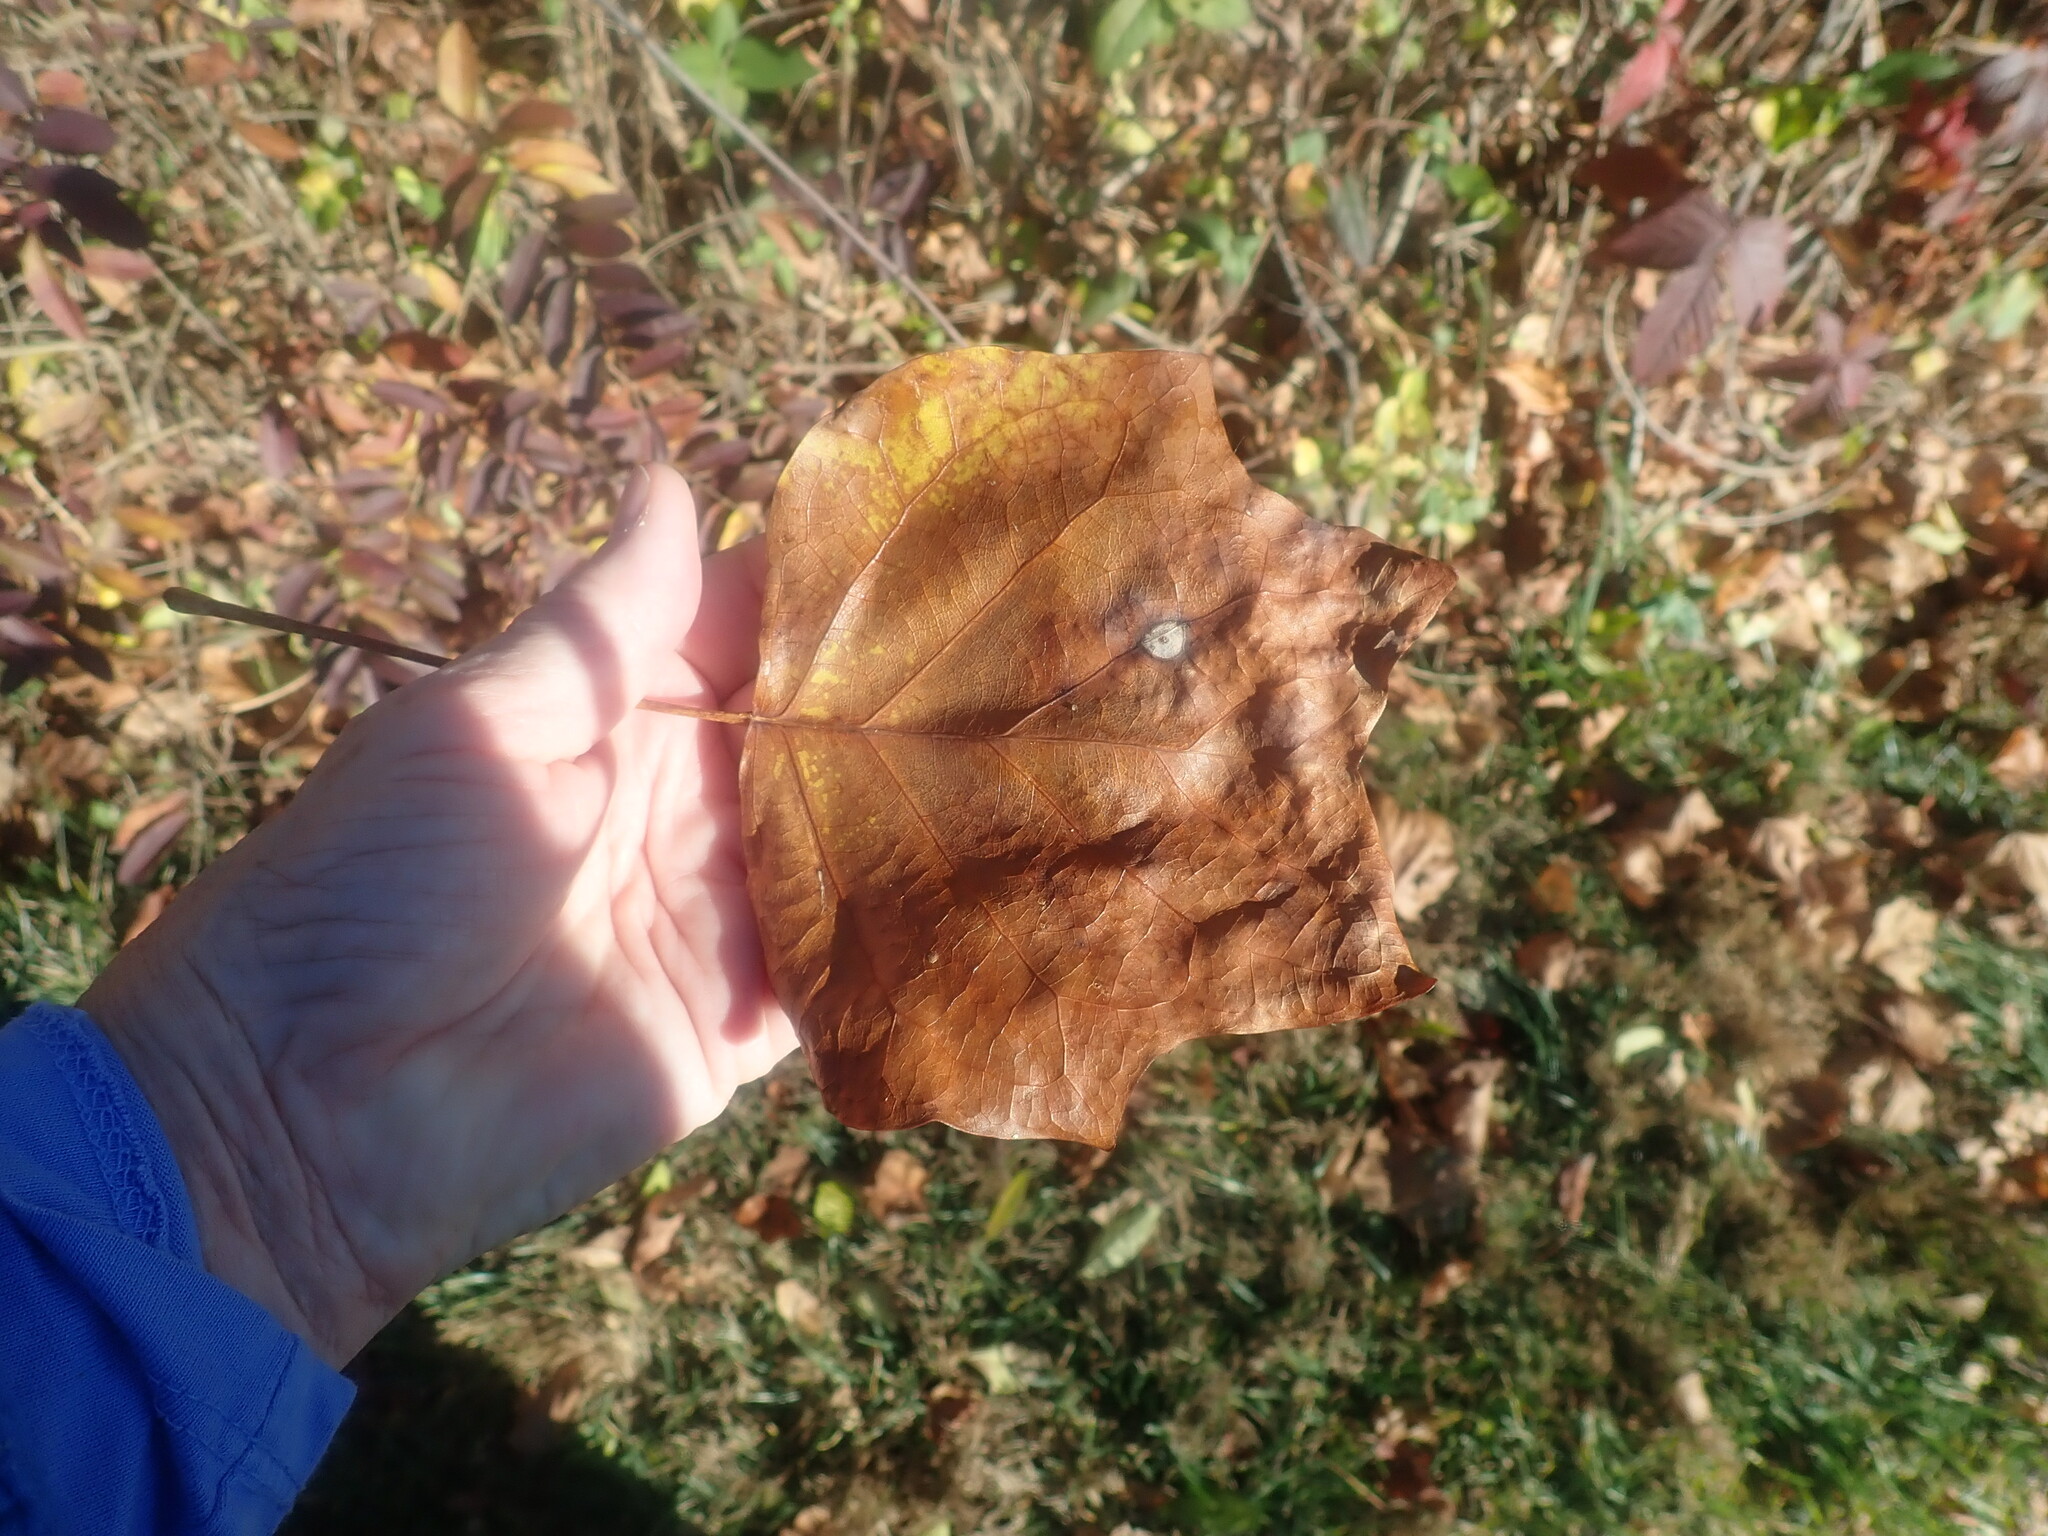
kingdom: Plantae
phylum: Tracheophyta
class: Magnoliopsida
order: Magnoliales
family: Magnoliaceae
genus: Liriodendron
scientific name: Liriodendron tulipifera
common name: Tulip tree
